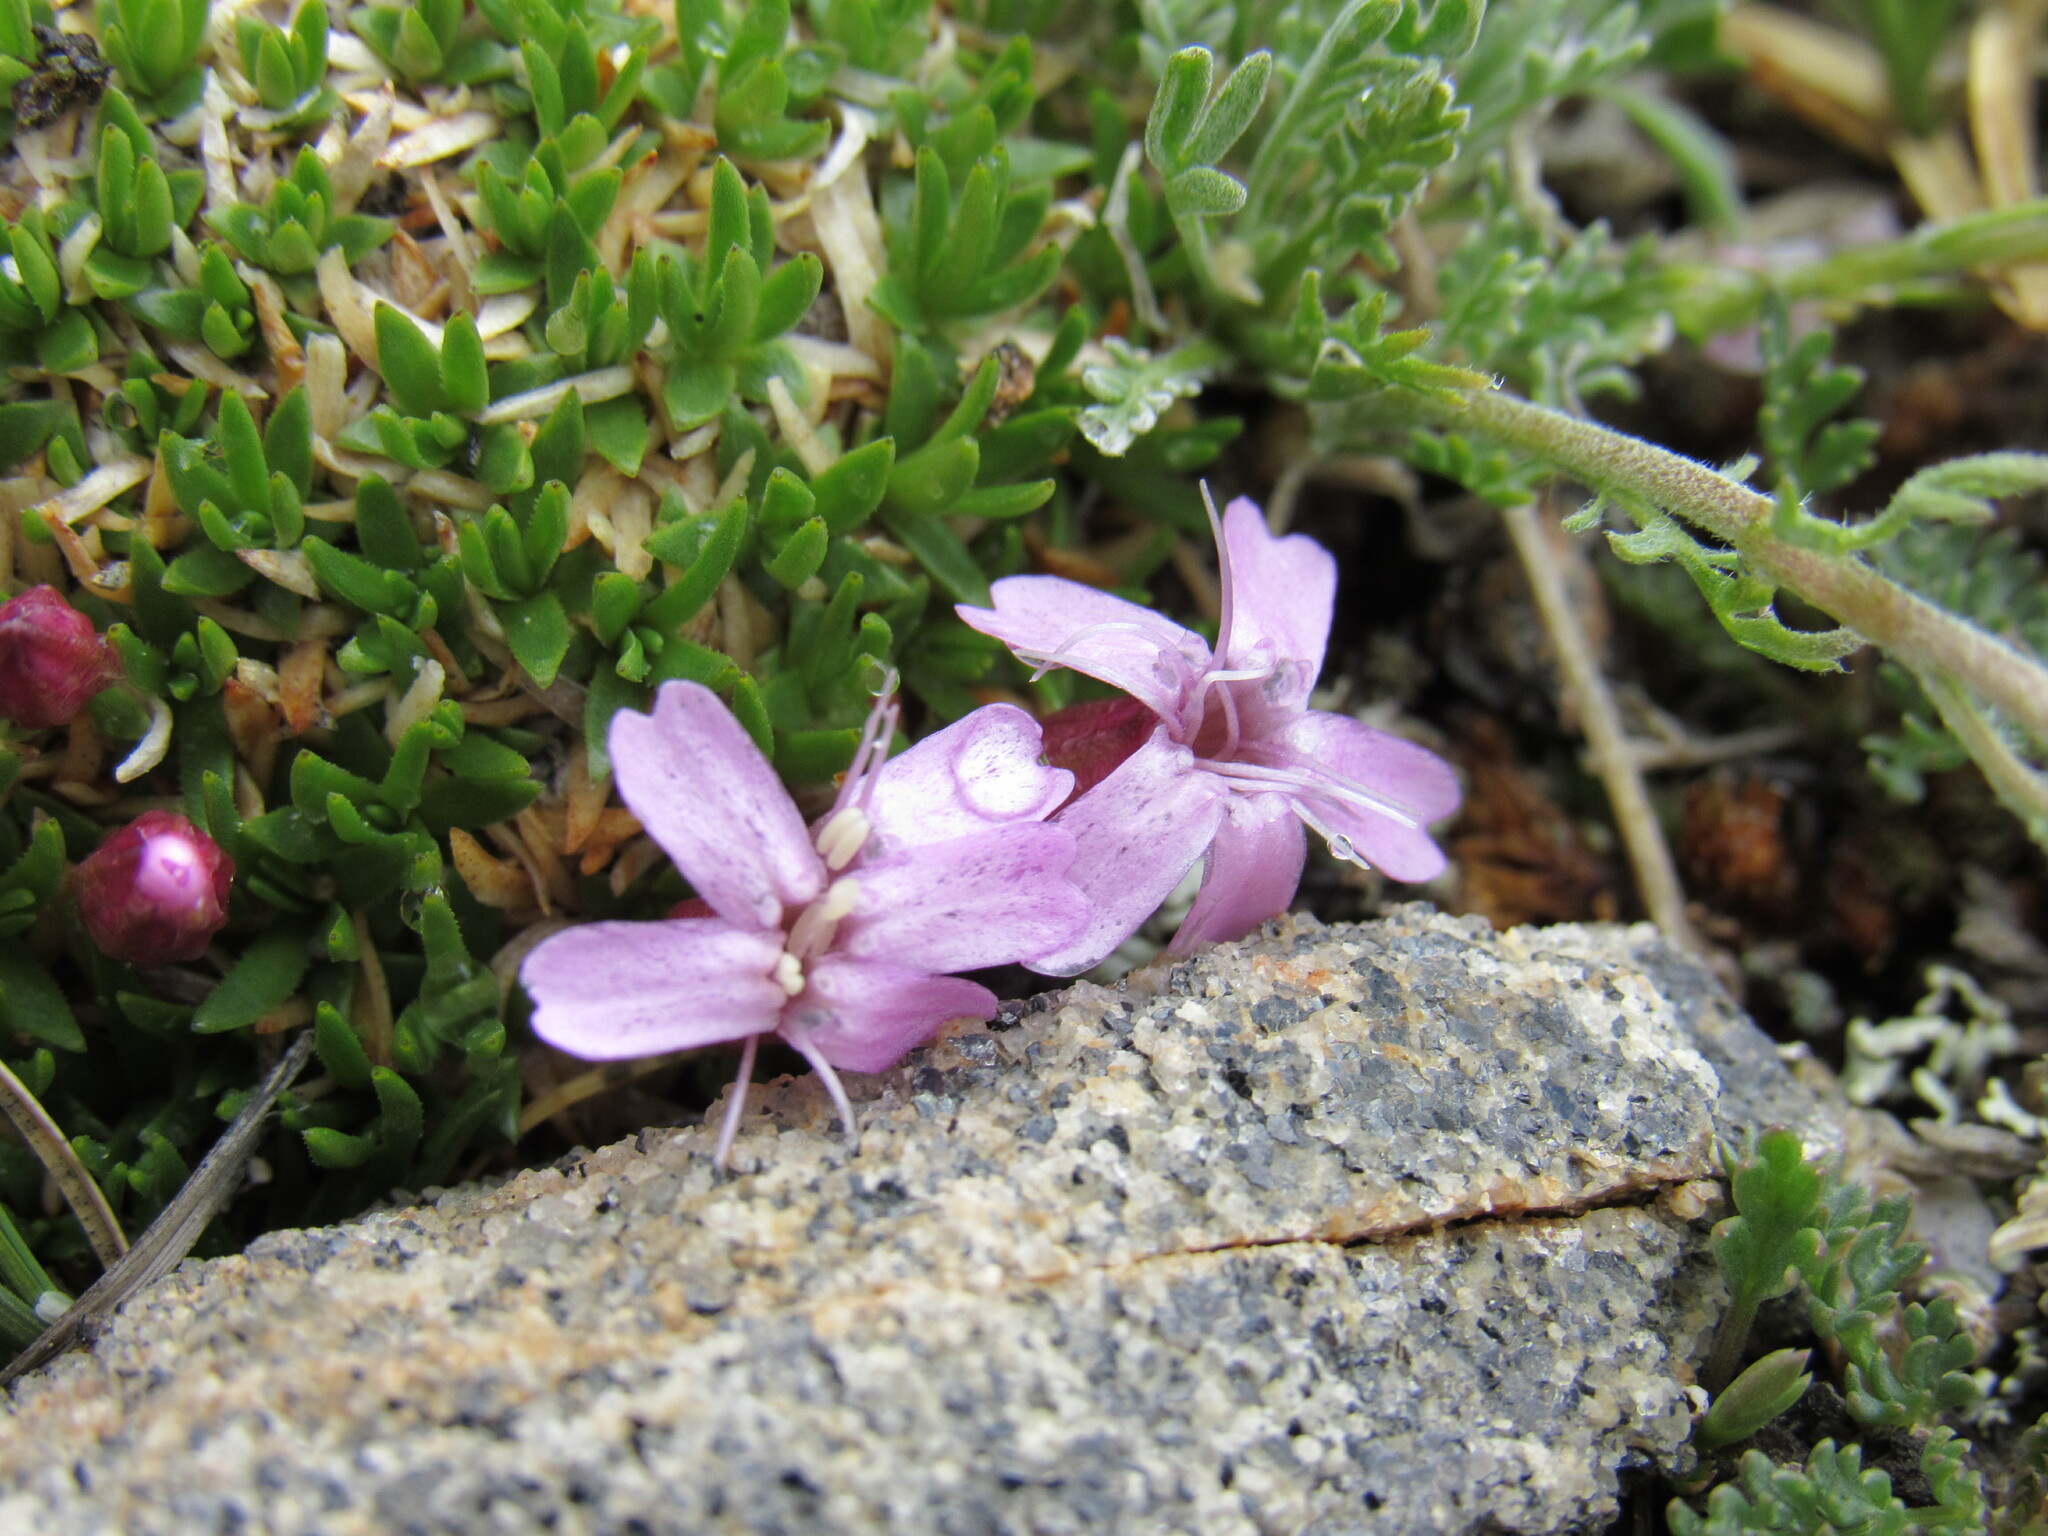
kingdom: Plantae
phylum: Tracheophyta
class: Magnoliopsida
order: Caryophyllales
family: Caryophyllaceae
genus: Silene
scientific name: Silene acaulis
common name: Moss campion
